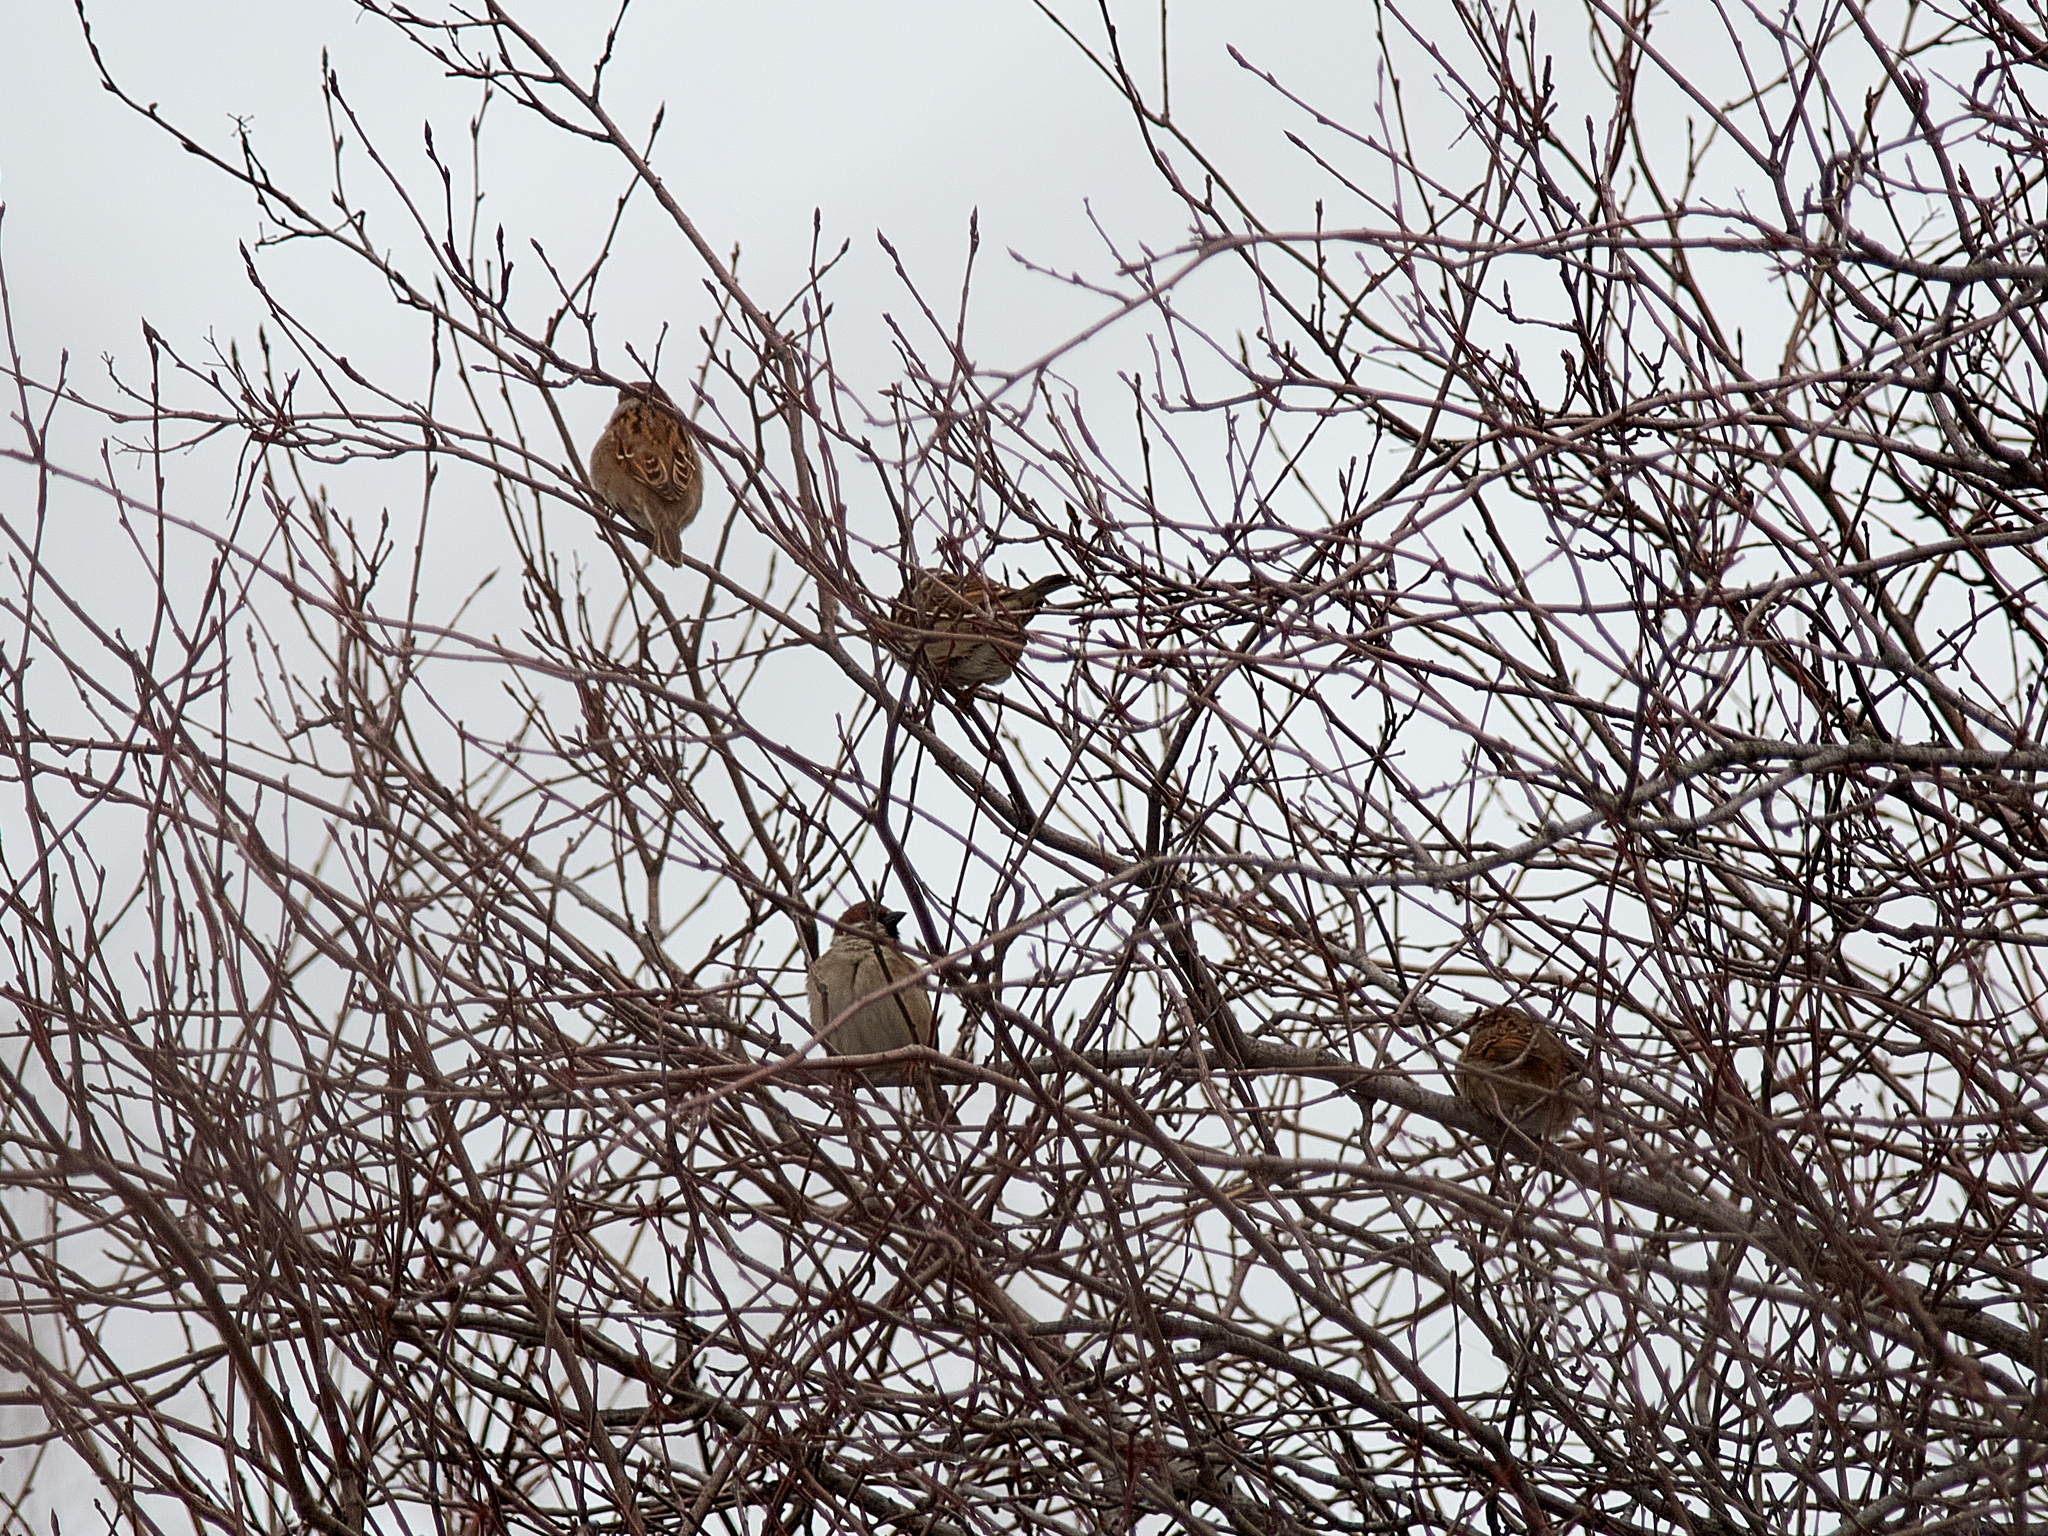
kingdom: Animalia
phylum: Chordata
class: Aves
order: Passeriformes
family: Passeridae
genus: Passer
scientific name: Passer montanus
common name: Eurasian tree sparrow
